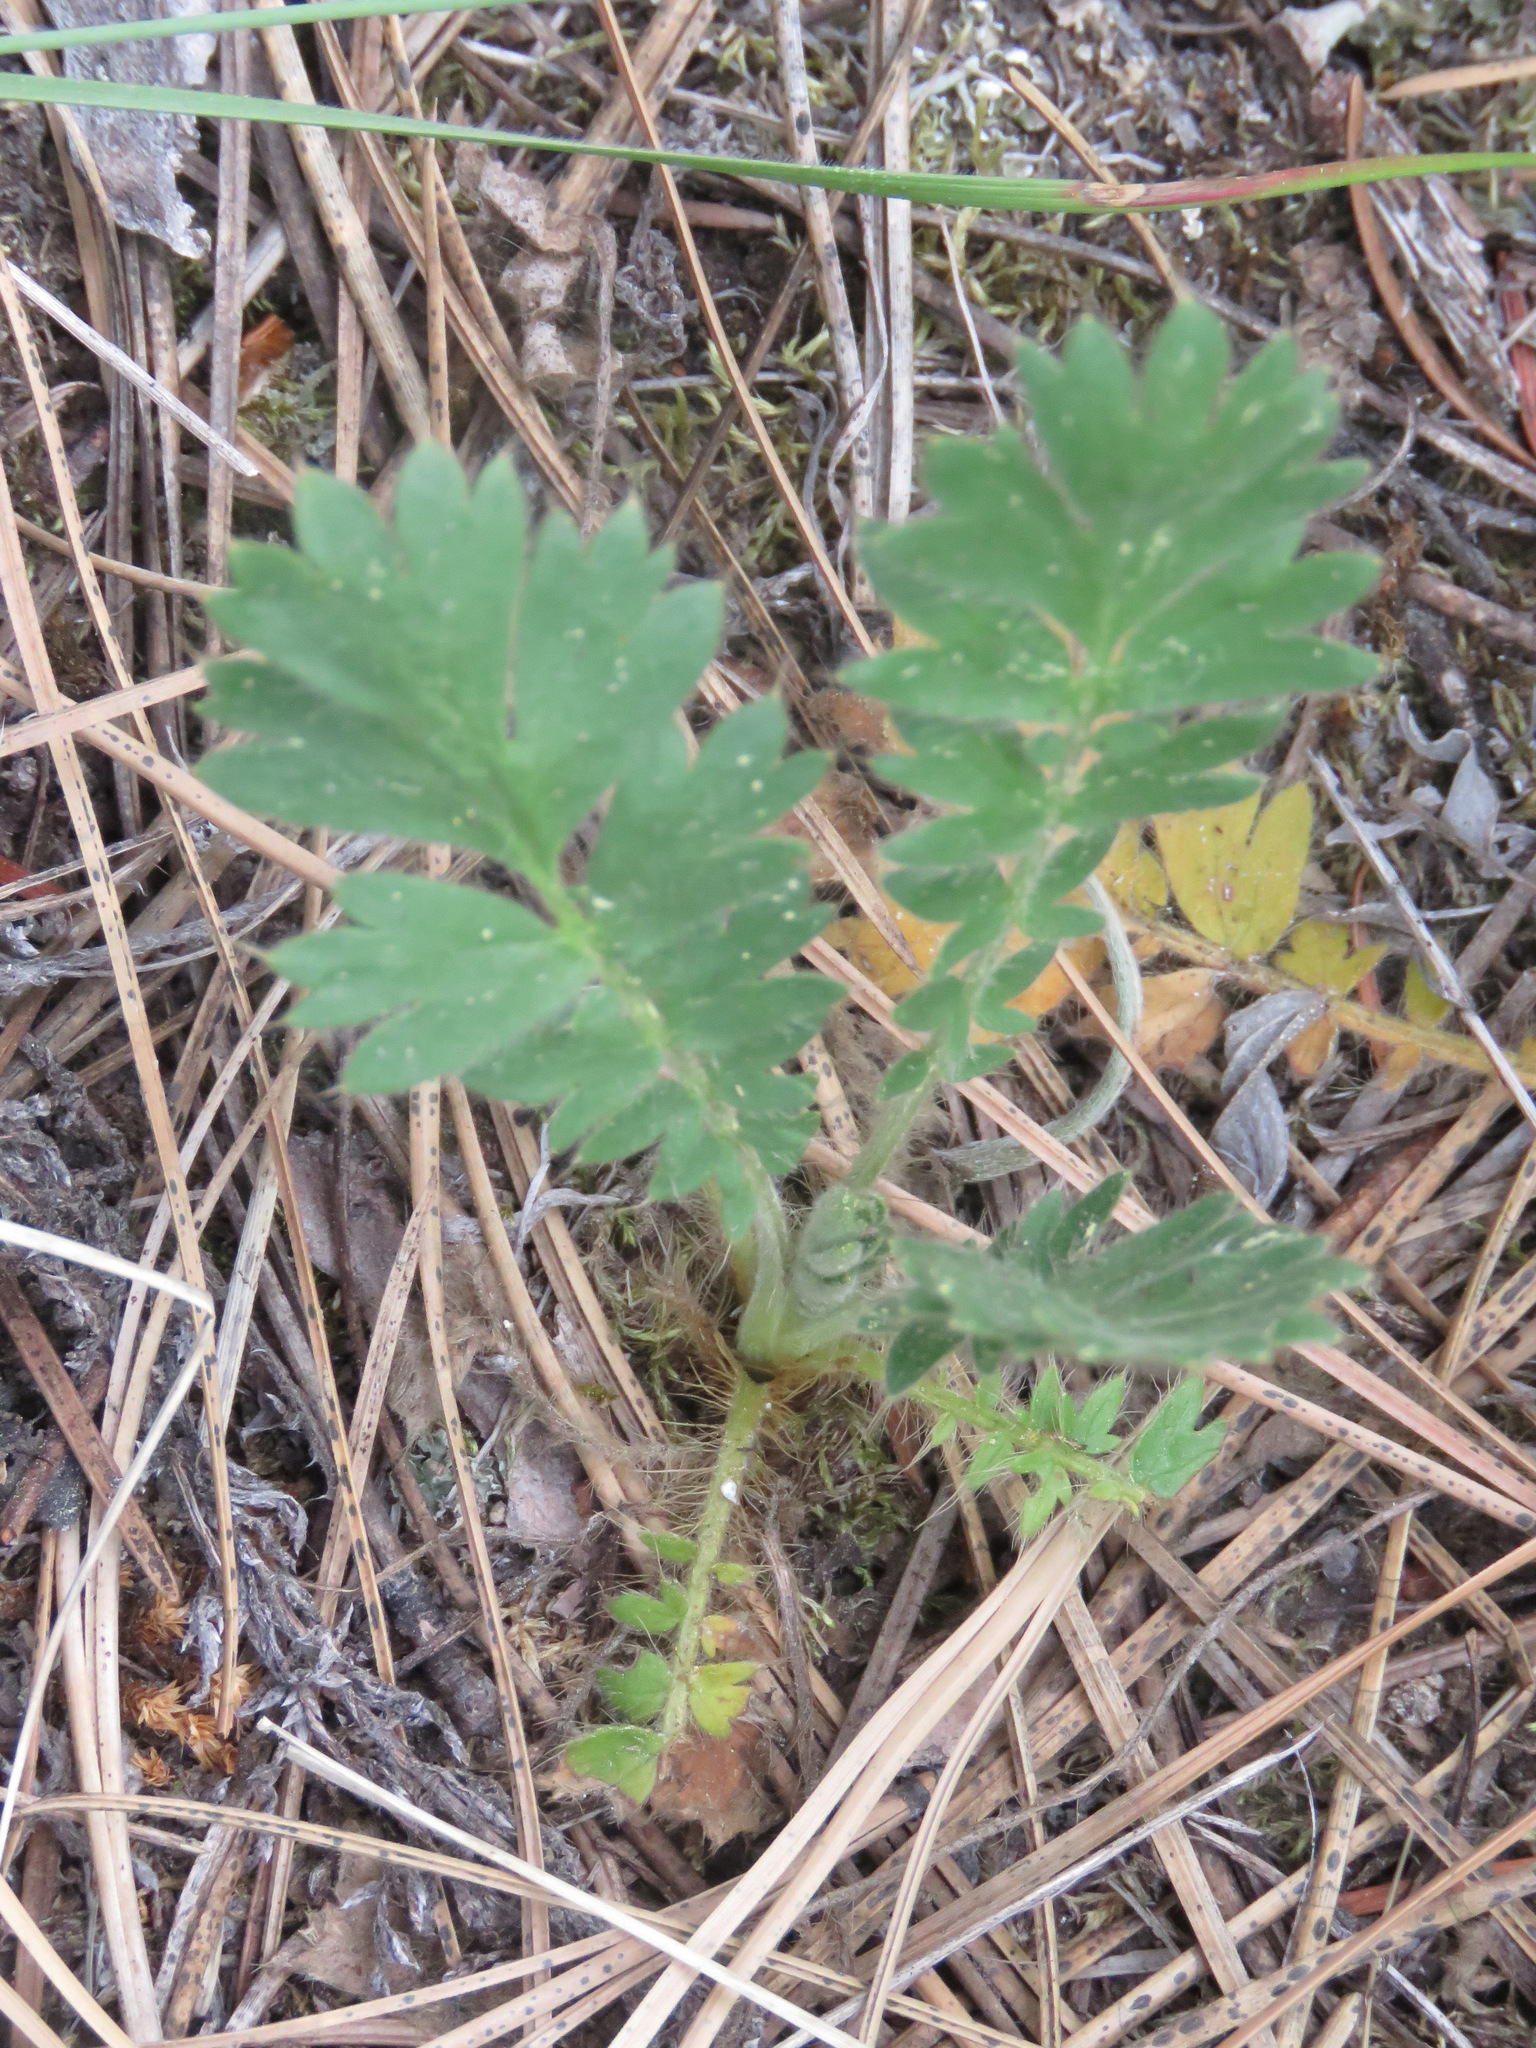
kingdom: Plantae
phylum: Tracheophyta
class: Magnoliopsida
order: Rosales
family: Rosaceae
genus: Geum
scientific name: Geum triflorum
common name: Old man's whiskers
